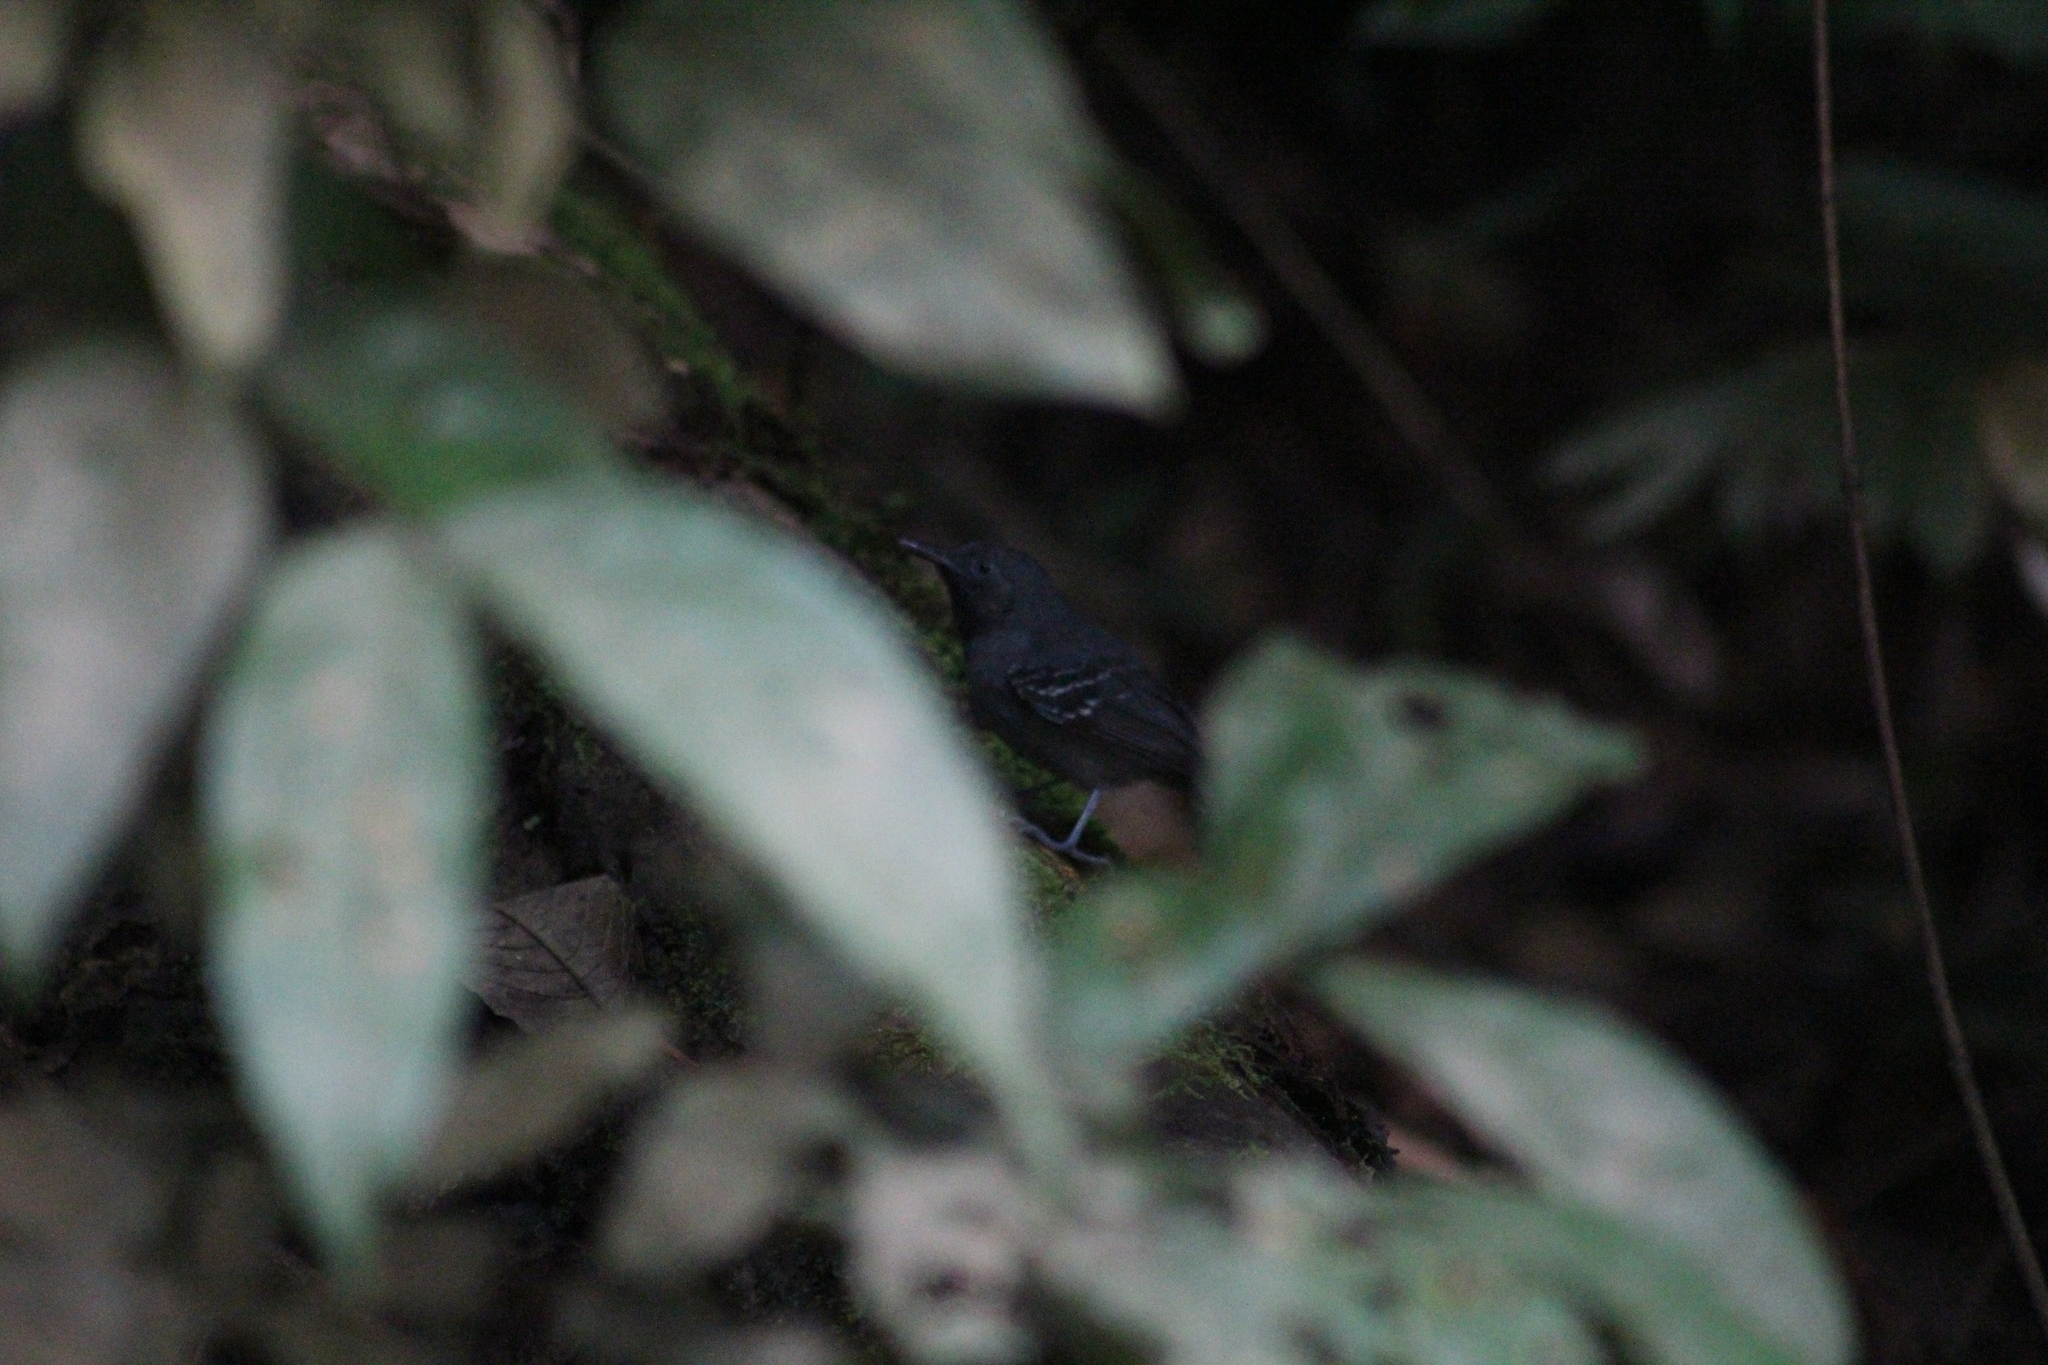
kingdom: Animalia
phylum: Chordata
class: Aves
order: Passeriformes
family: Thamnophilidae
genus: Myrmotherula
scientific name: Myrmotherula longipennis
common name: Long-winged antwren
